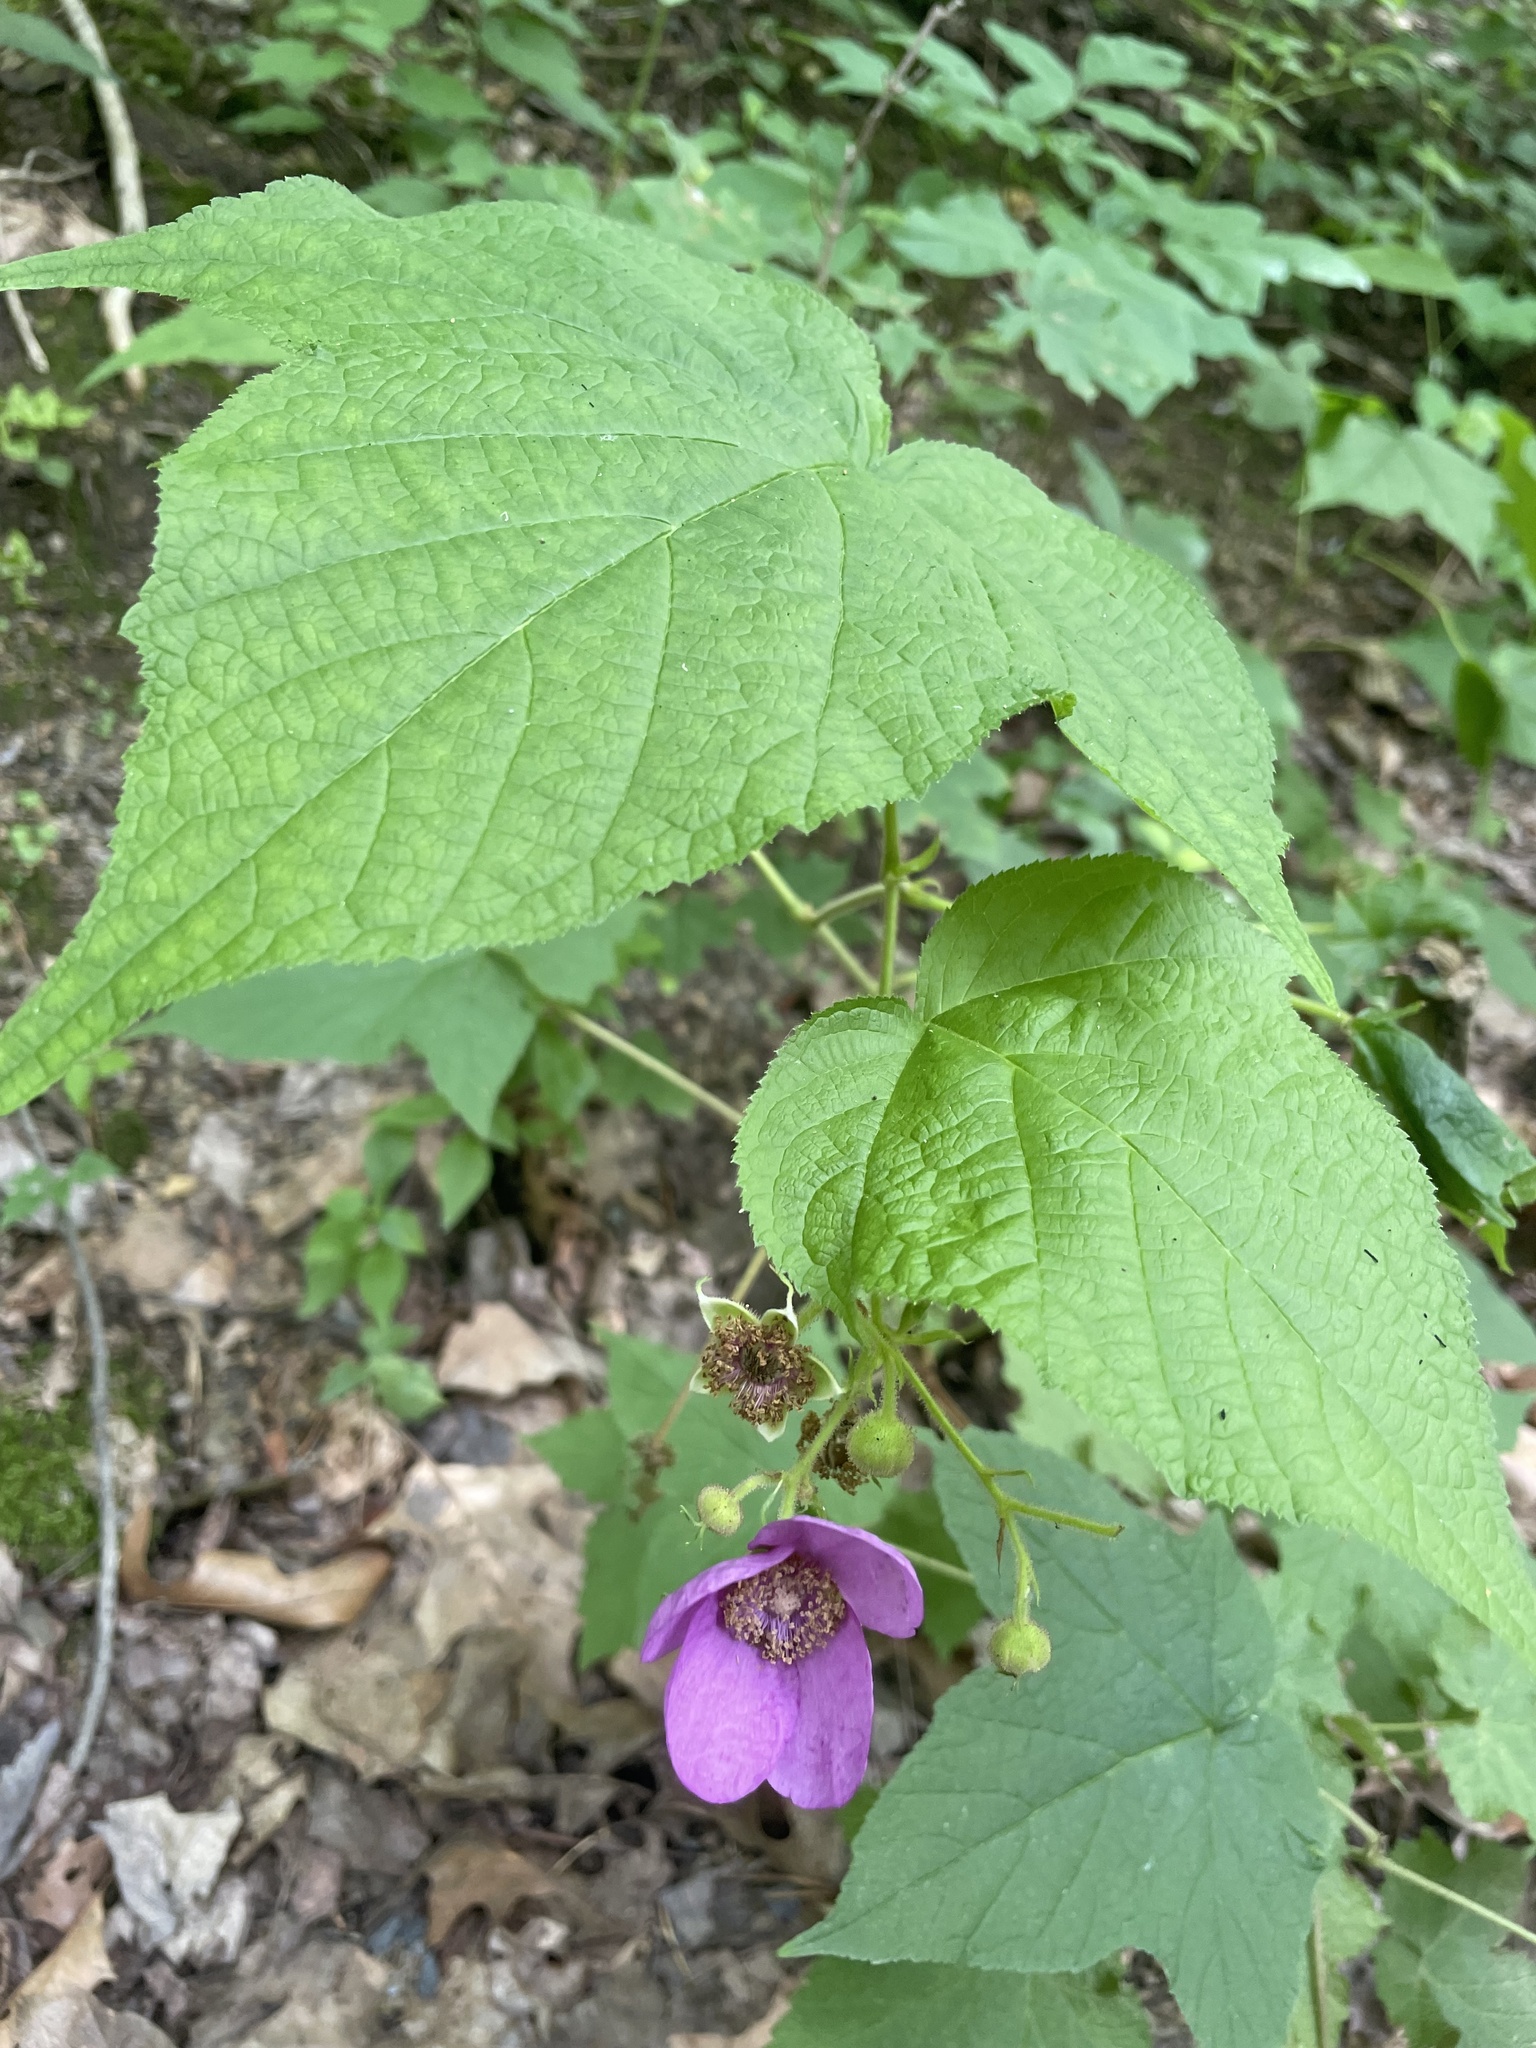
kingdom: Plantae
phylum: Tracheophyta
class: Magnoliopsida
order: Rosales
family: Rosaceae
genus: Rubus
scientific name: Rubus odoratus
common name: Purple-flowered raspberry
